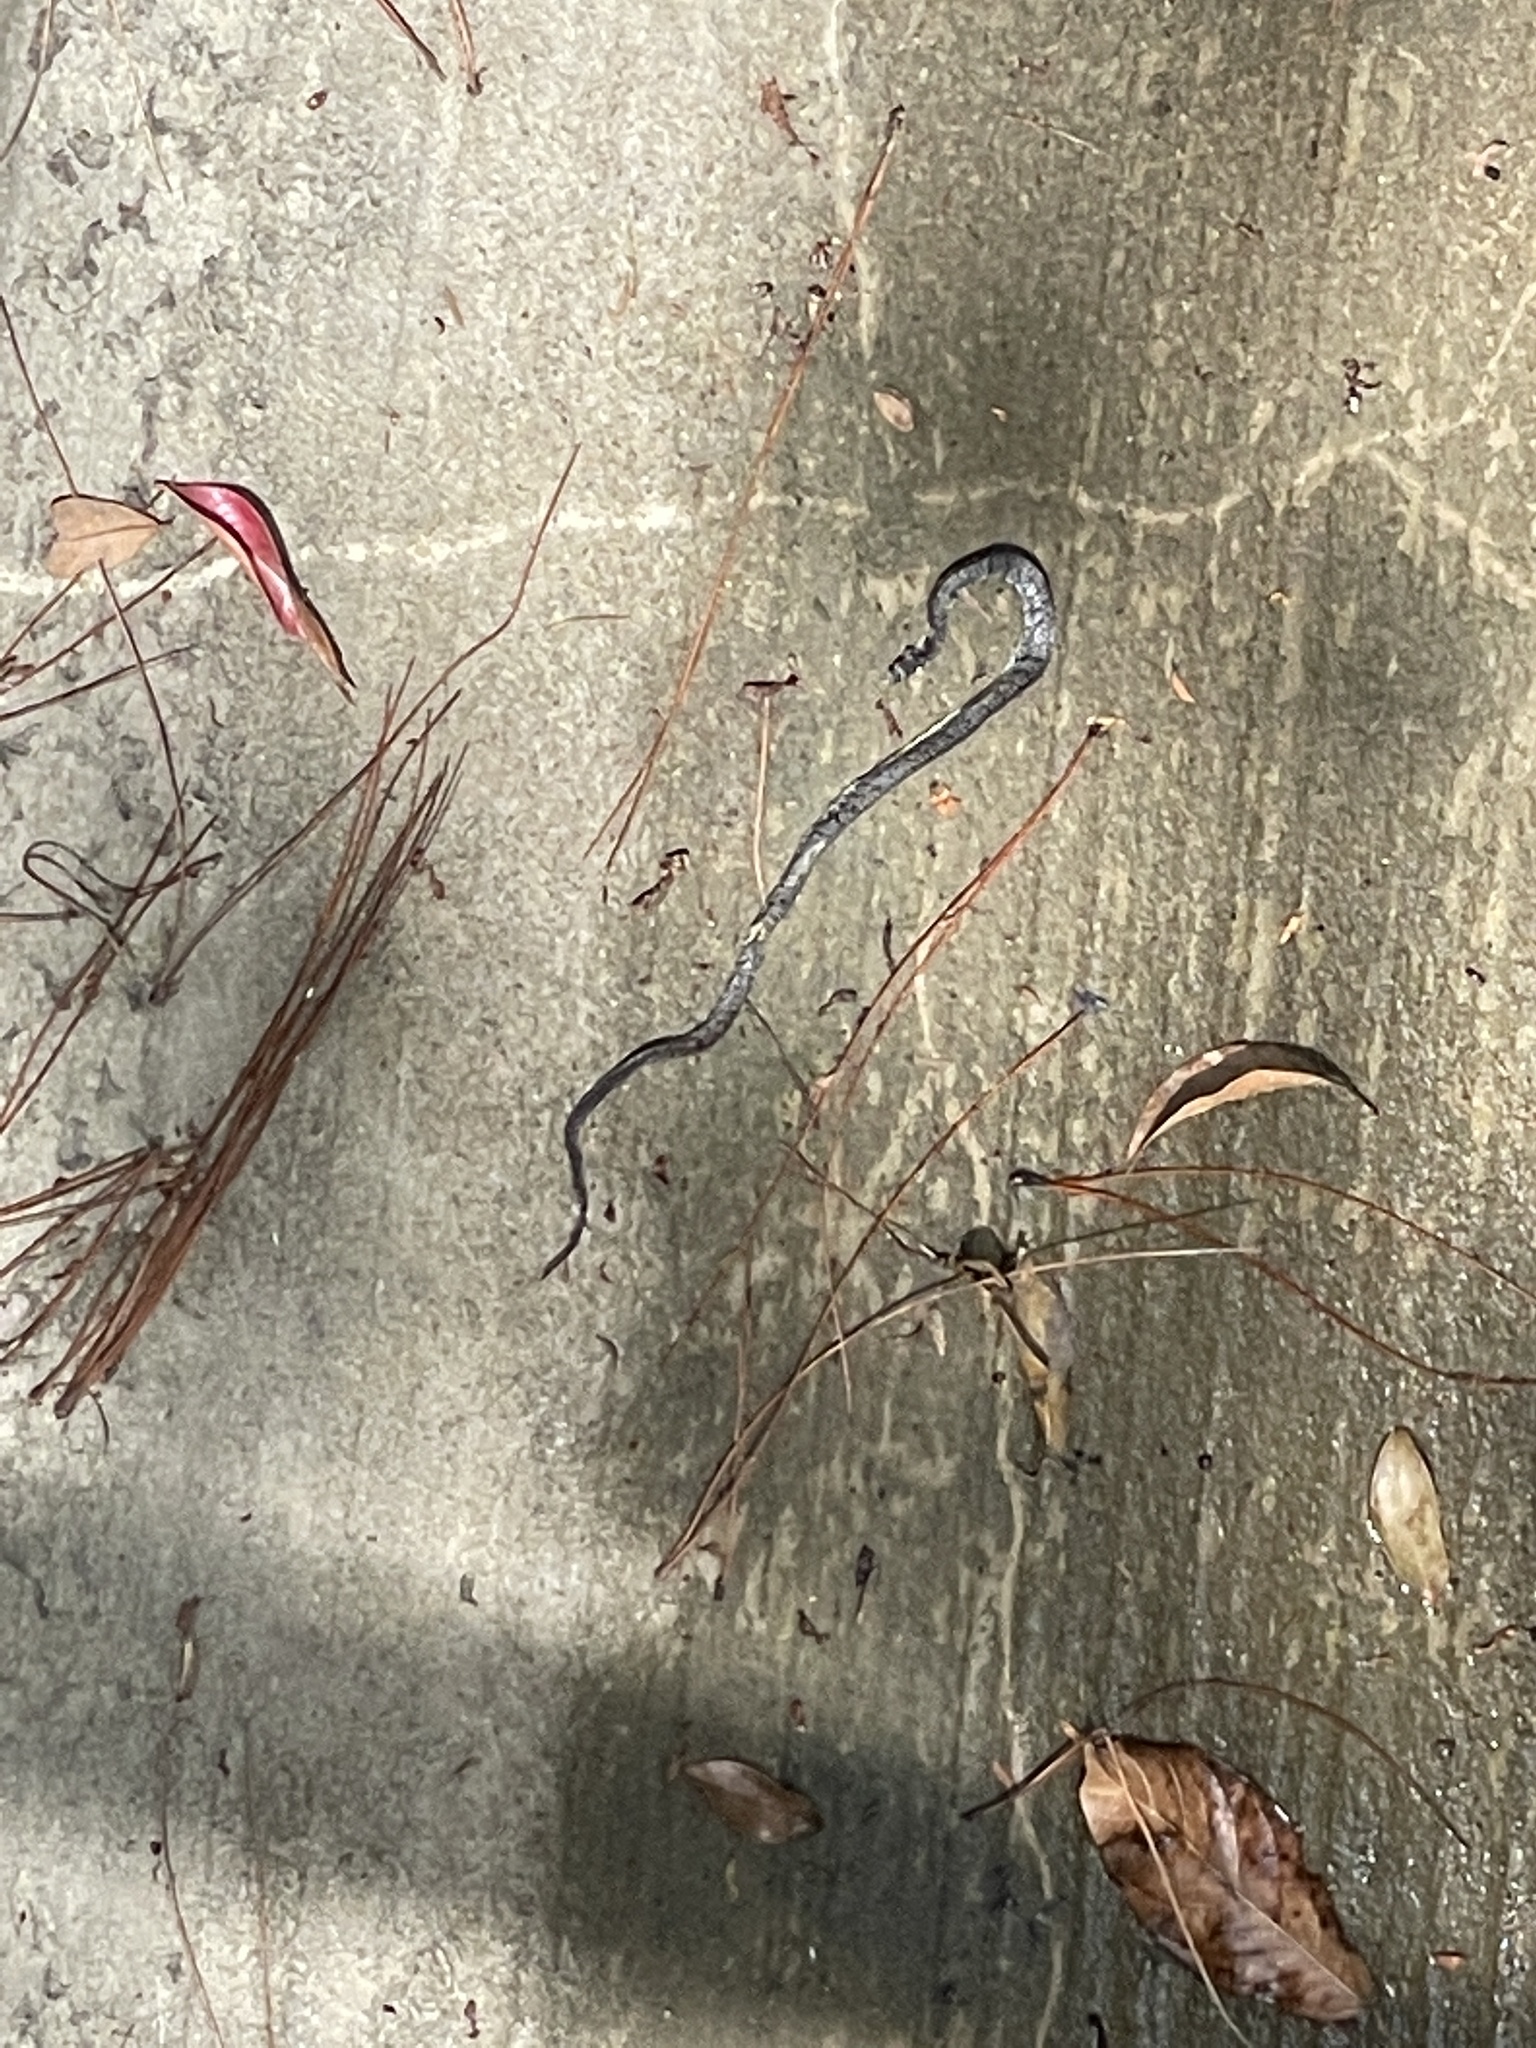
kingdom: Animalia
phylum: Chordata
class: Squamata
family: Pareidae
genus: Pareas
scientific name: Pareas margaritophorus
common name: Mountain slug snake
